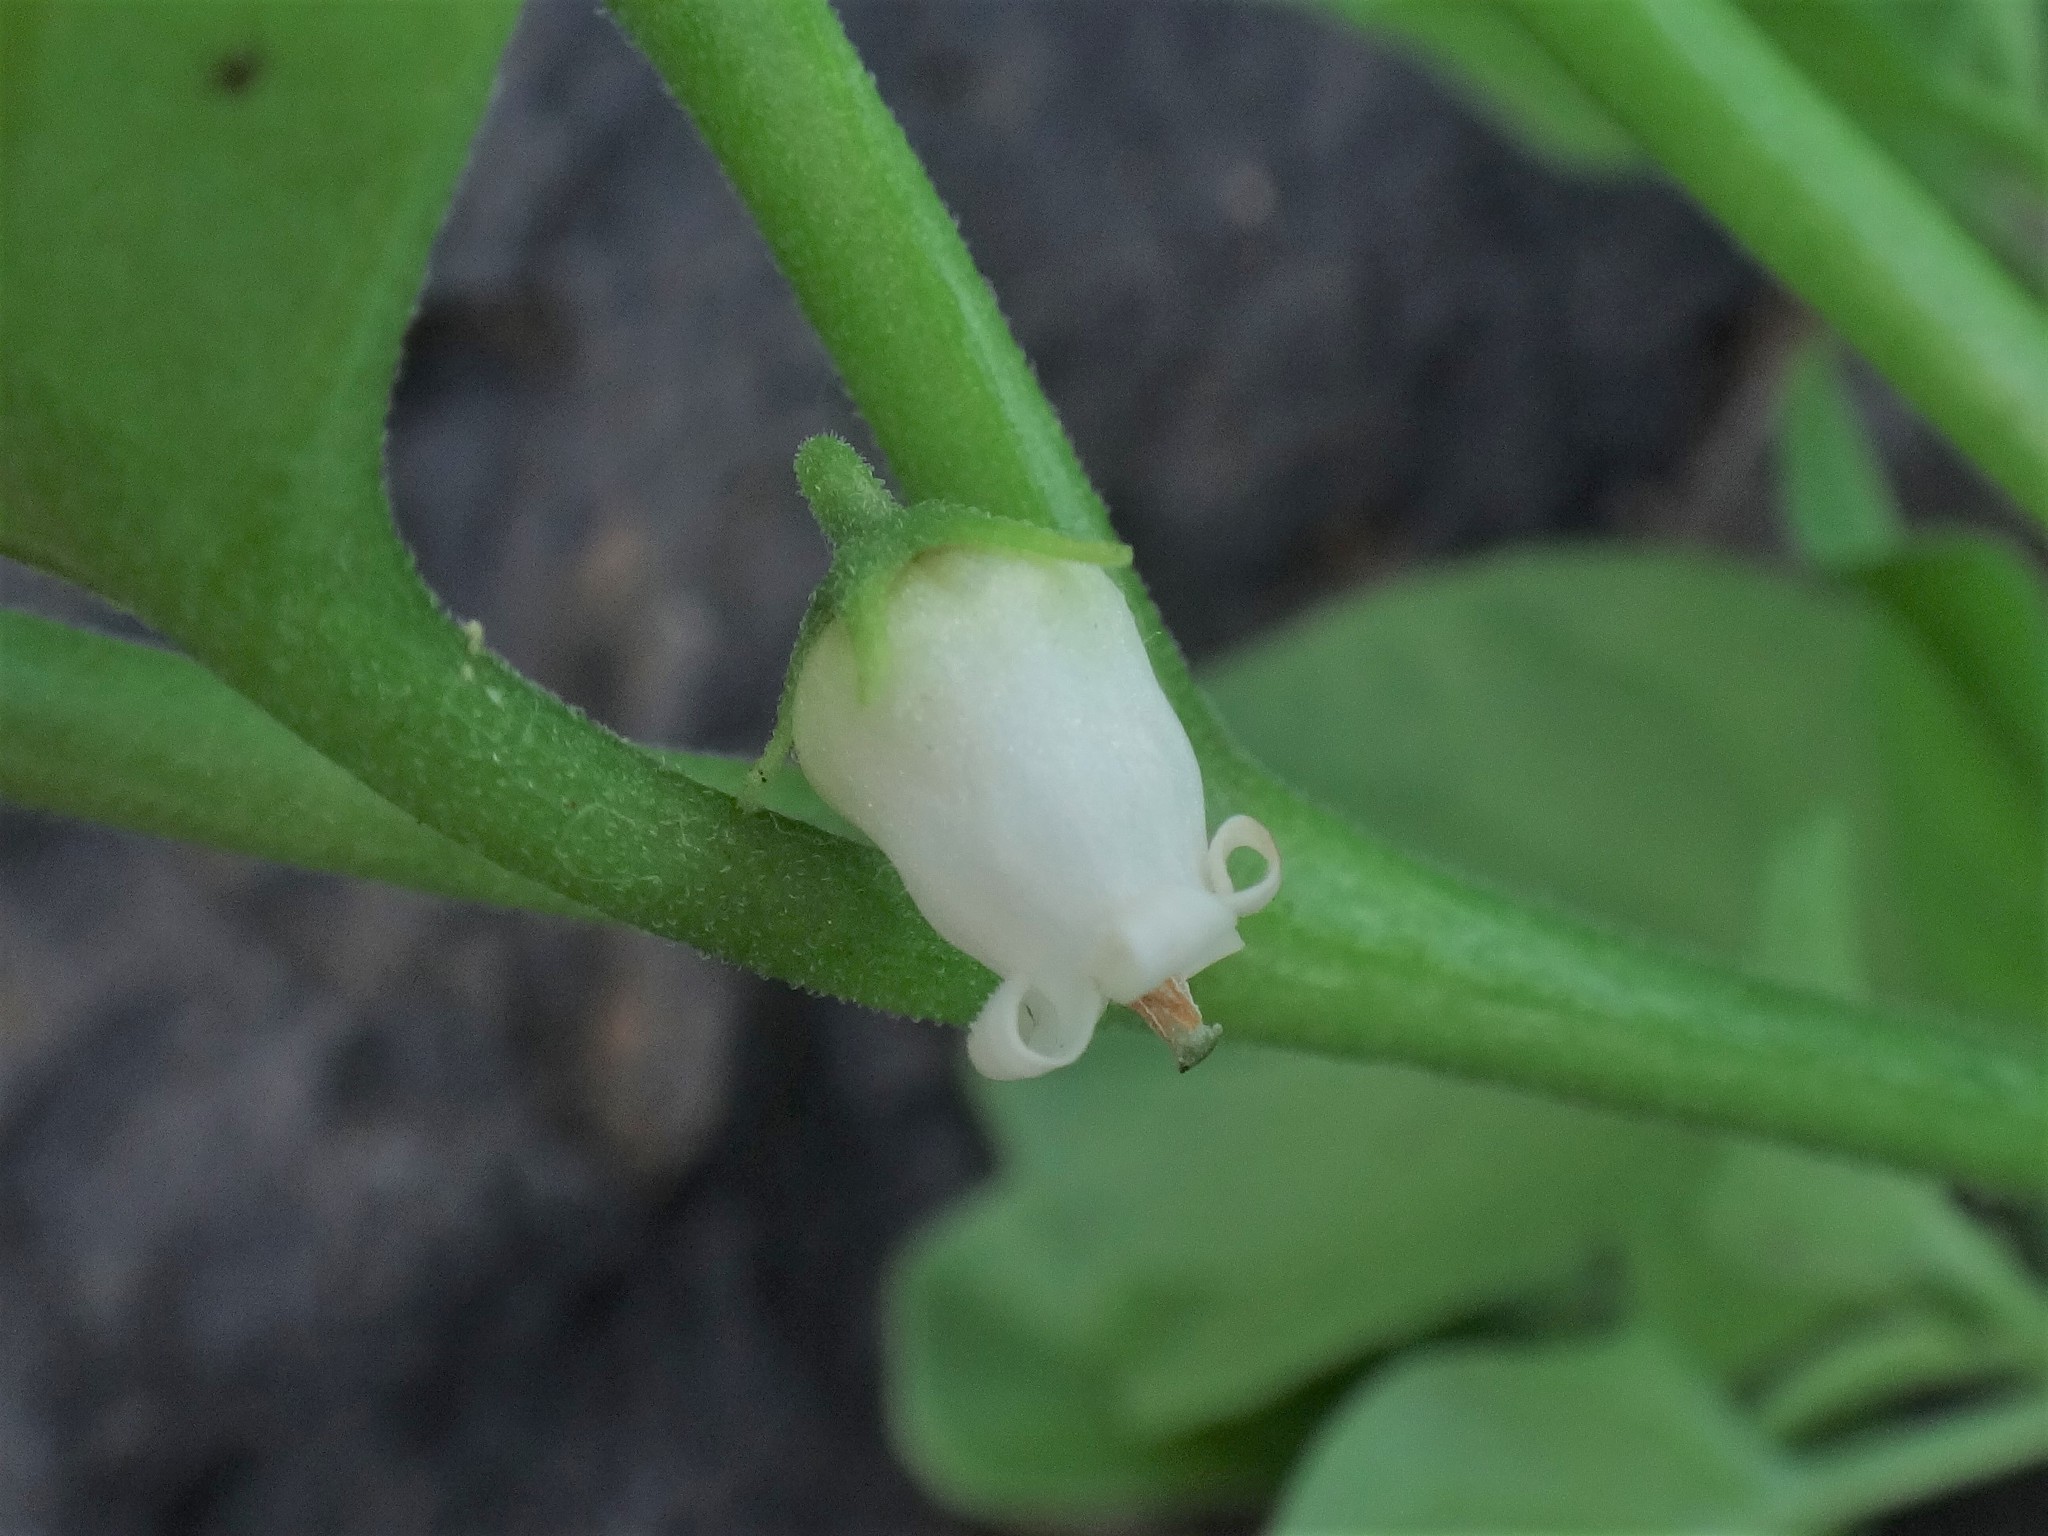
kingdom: Plantae
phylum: Tracheophyta
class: Magnoliopsida
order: Solanales
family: Solanaceae
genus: Salpichroa
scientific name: Salpichroa origanifolia
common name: Lily-of-the-valley-vine
